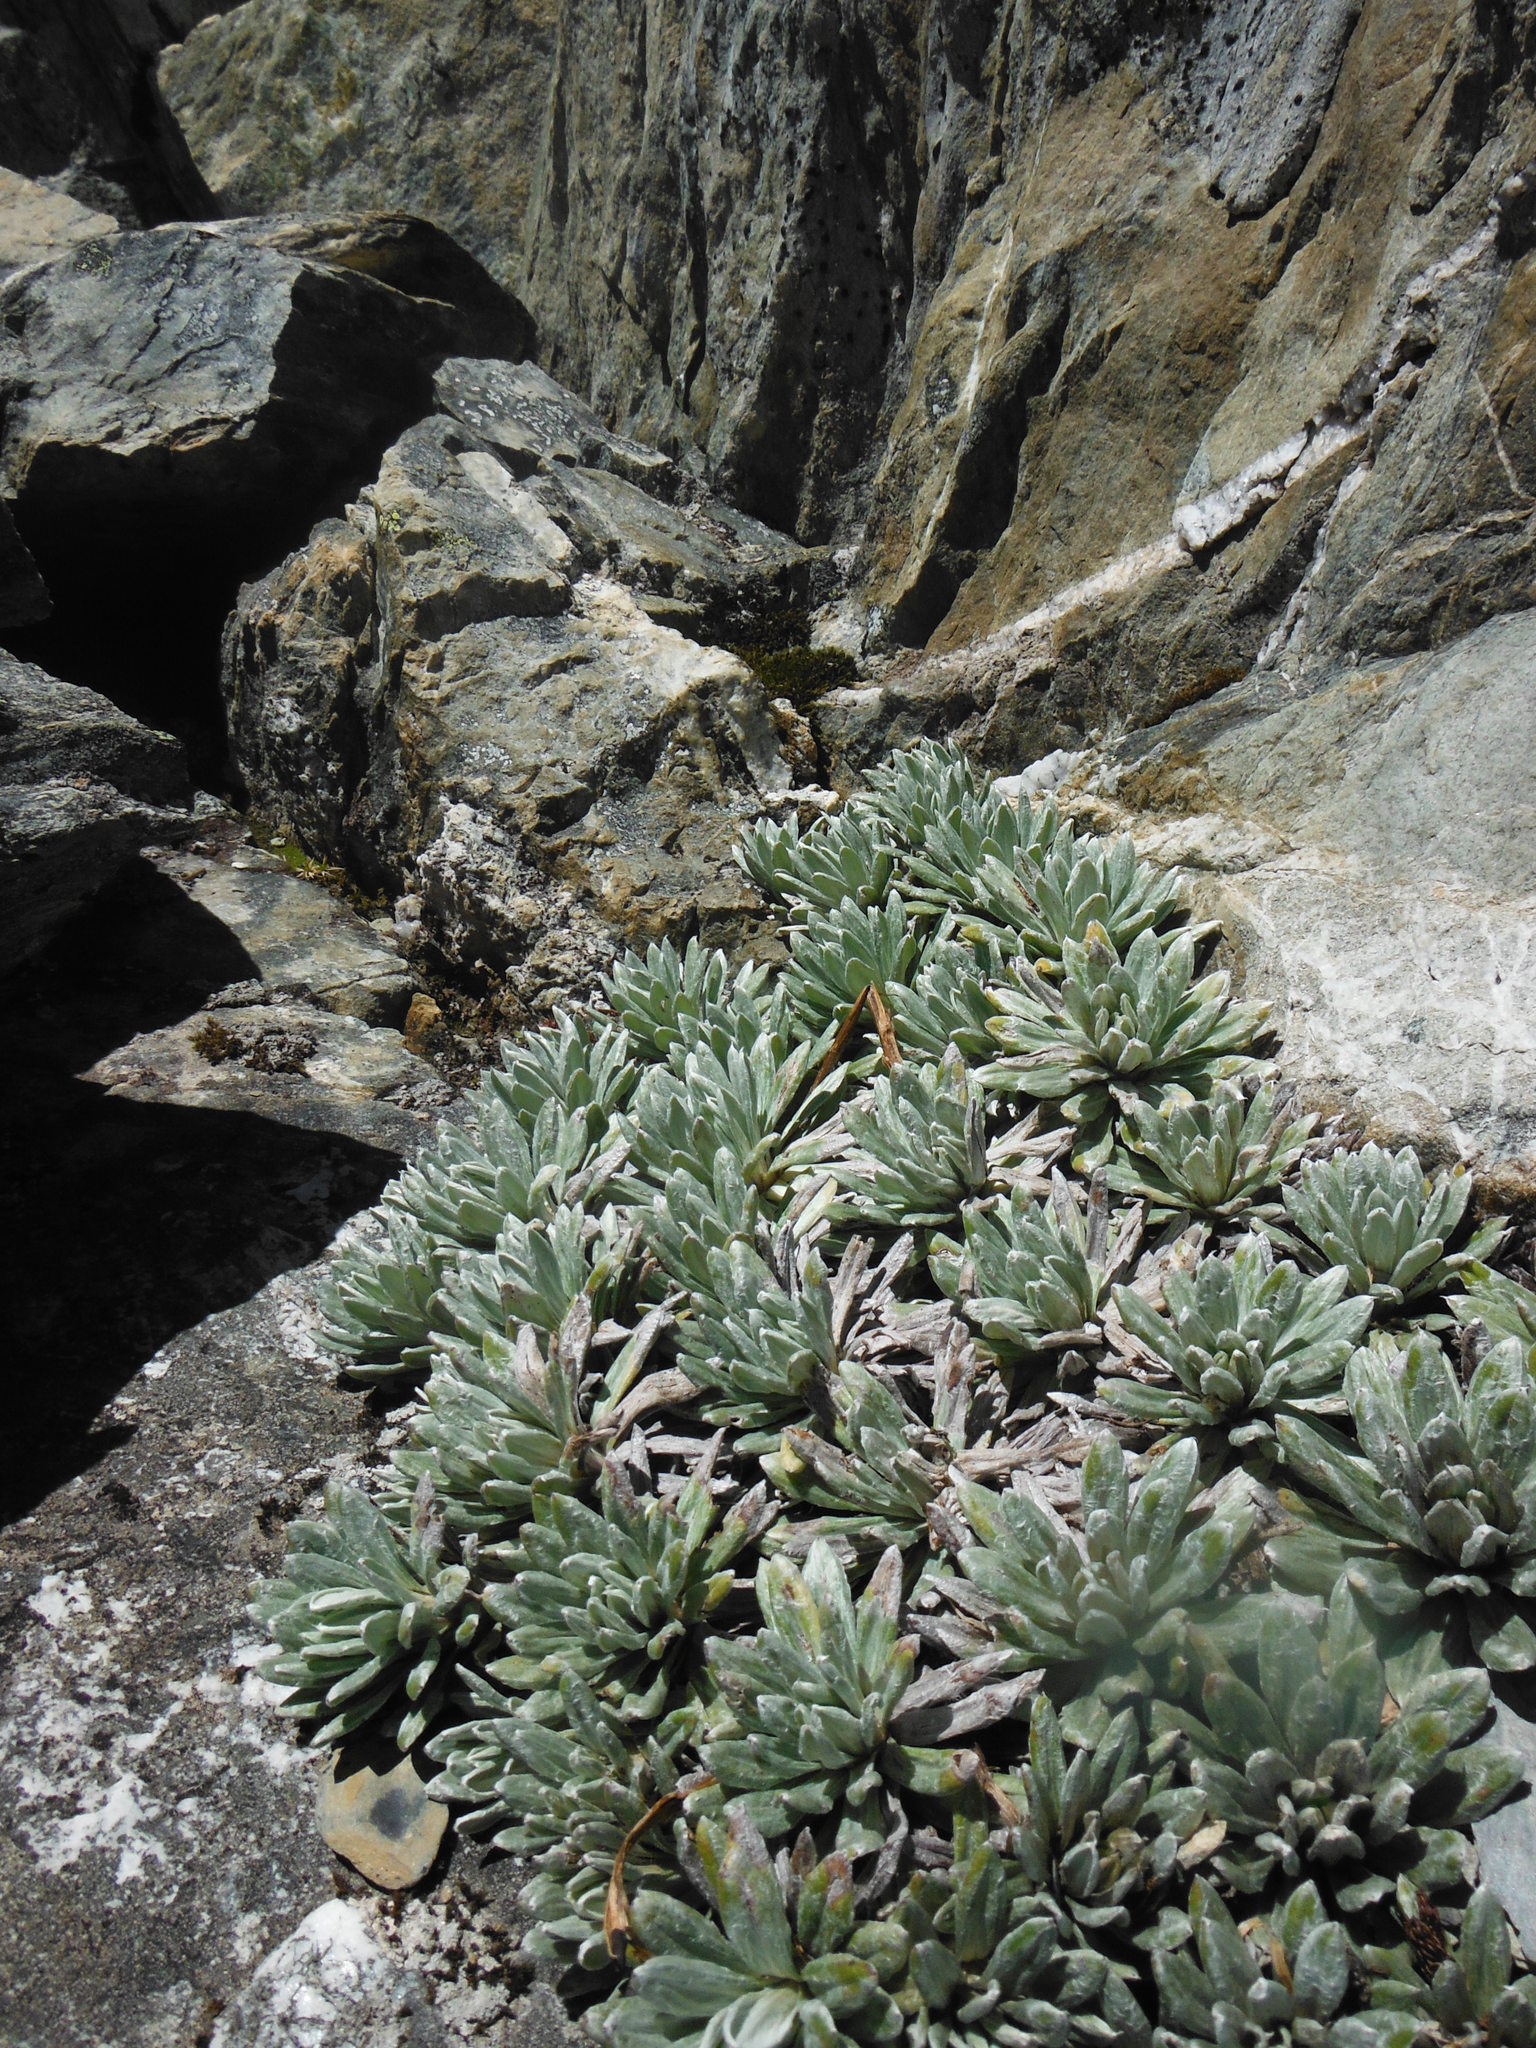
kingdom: Plantae
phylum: Tracheophyta
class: Magnoliopsida
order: Asterales
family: Asteraceae
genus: Celmisia
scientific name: Celmisia hectorii
